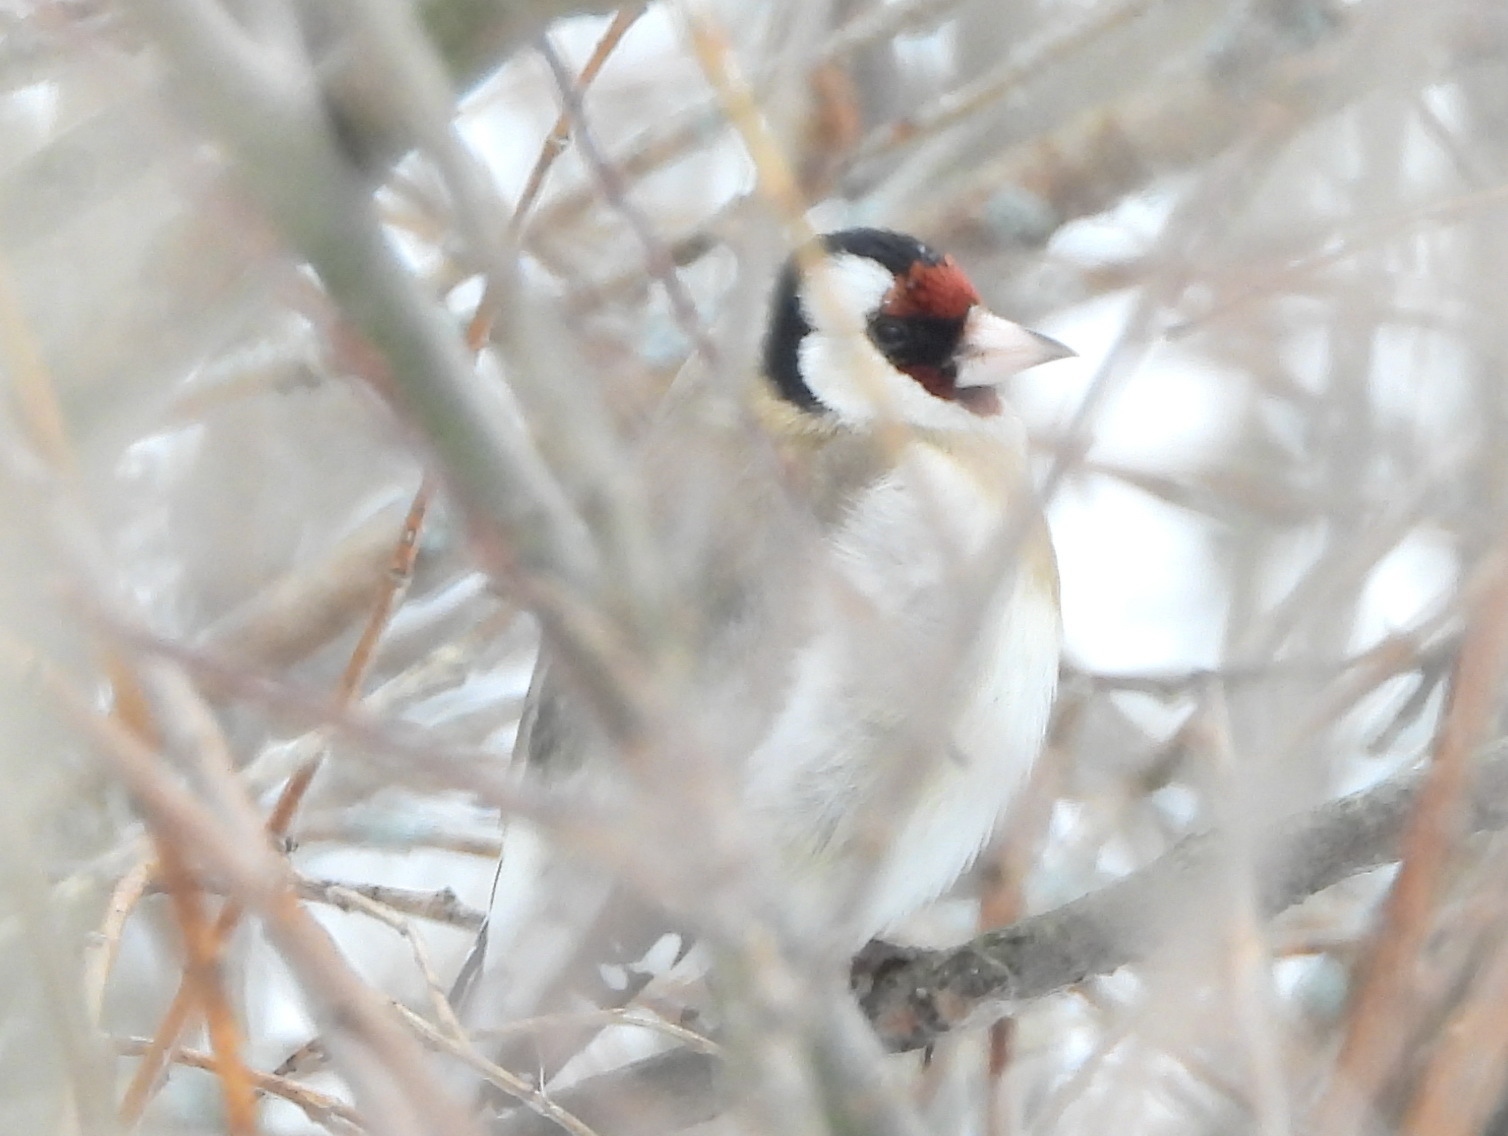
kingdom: Animalia
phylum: Chordata
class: Aves
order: Passeriformes
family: Fringillidae
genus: Carduelis
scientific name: Carduelis carduelis
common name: European goldfinch
